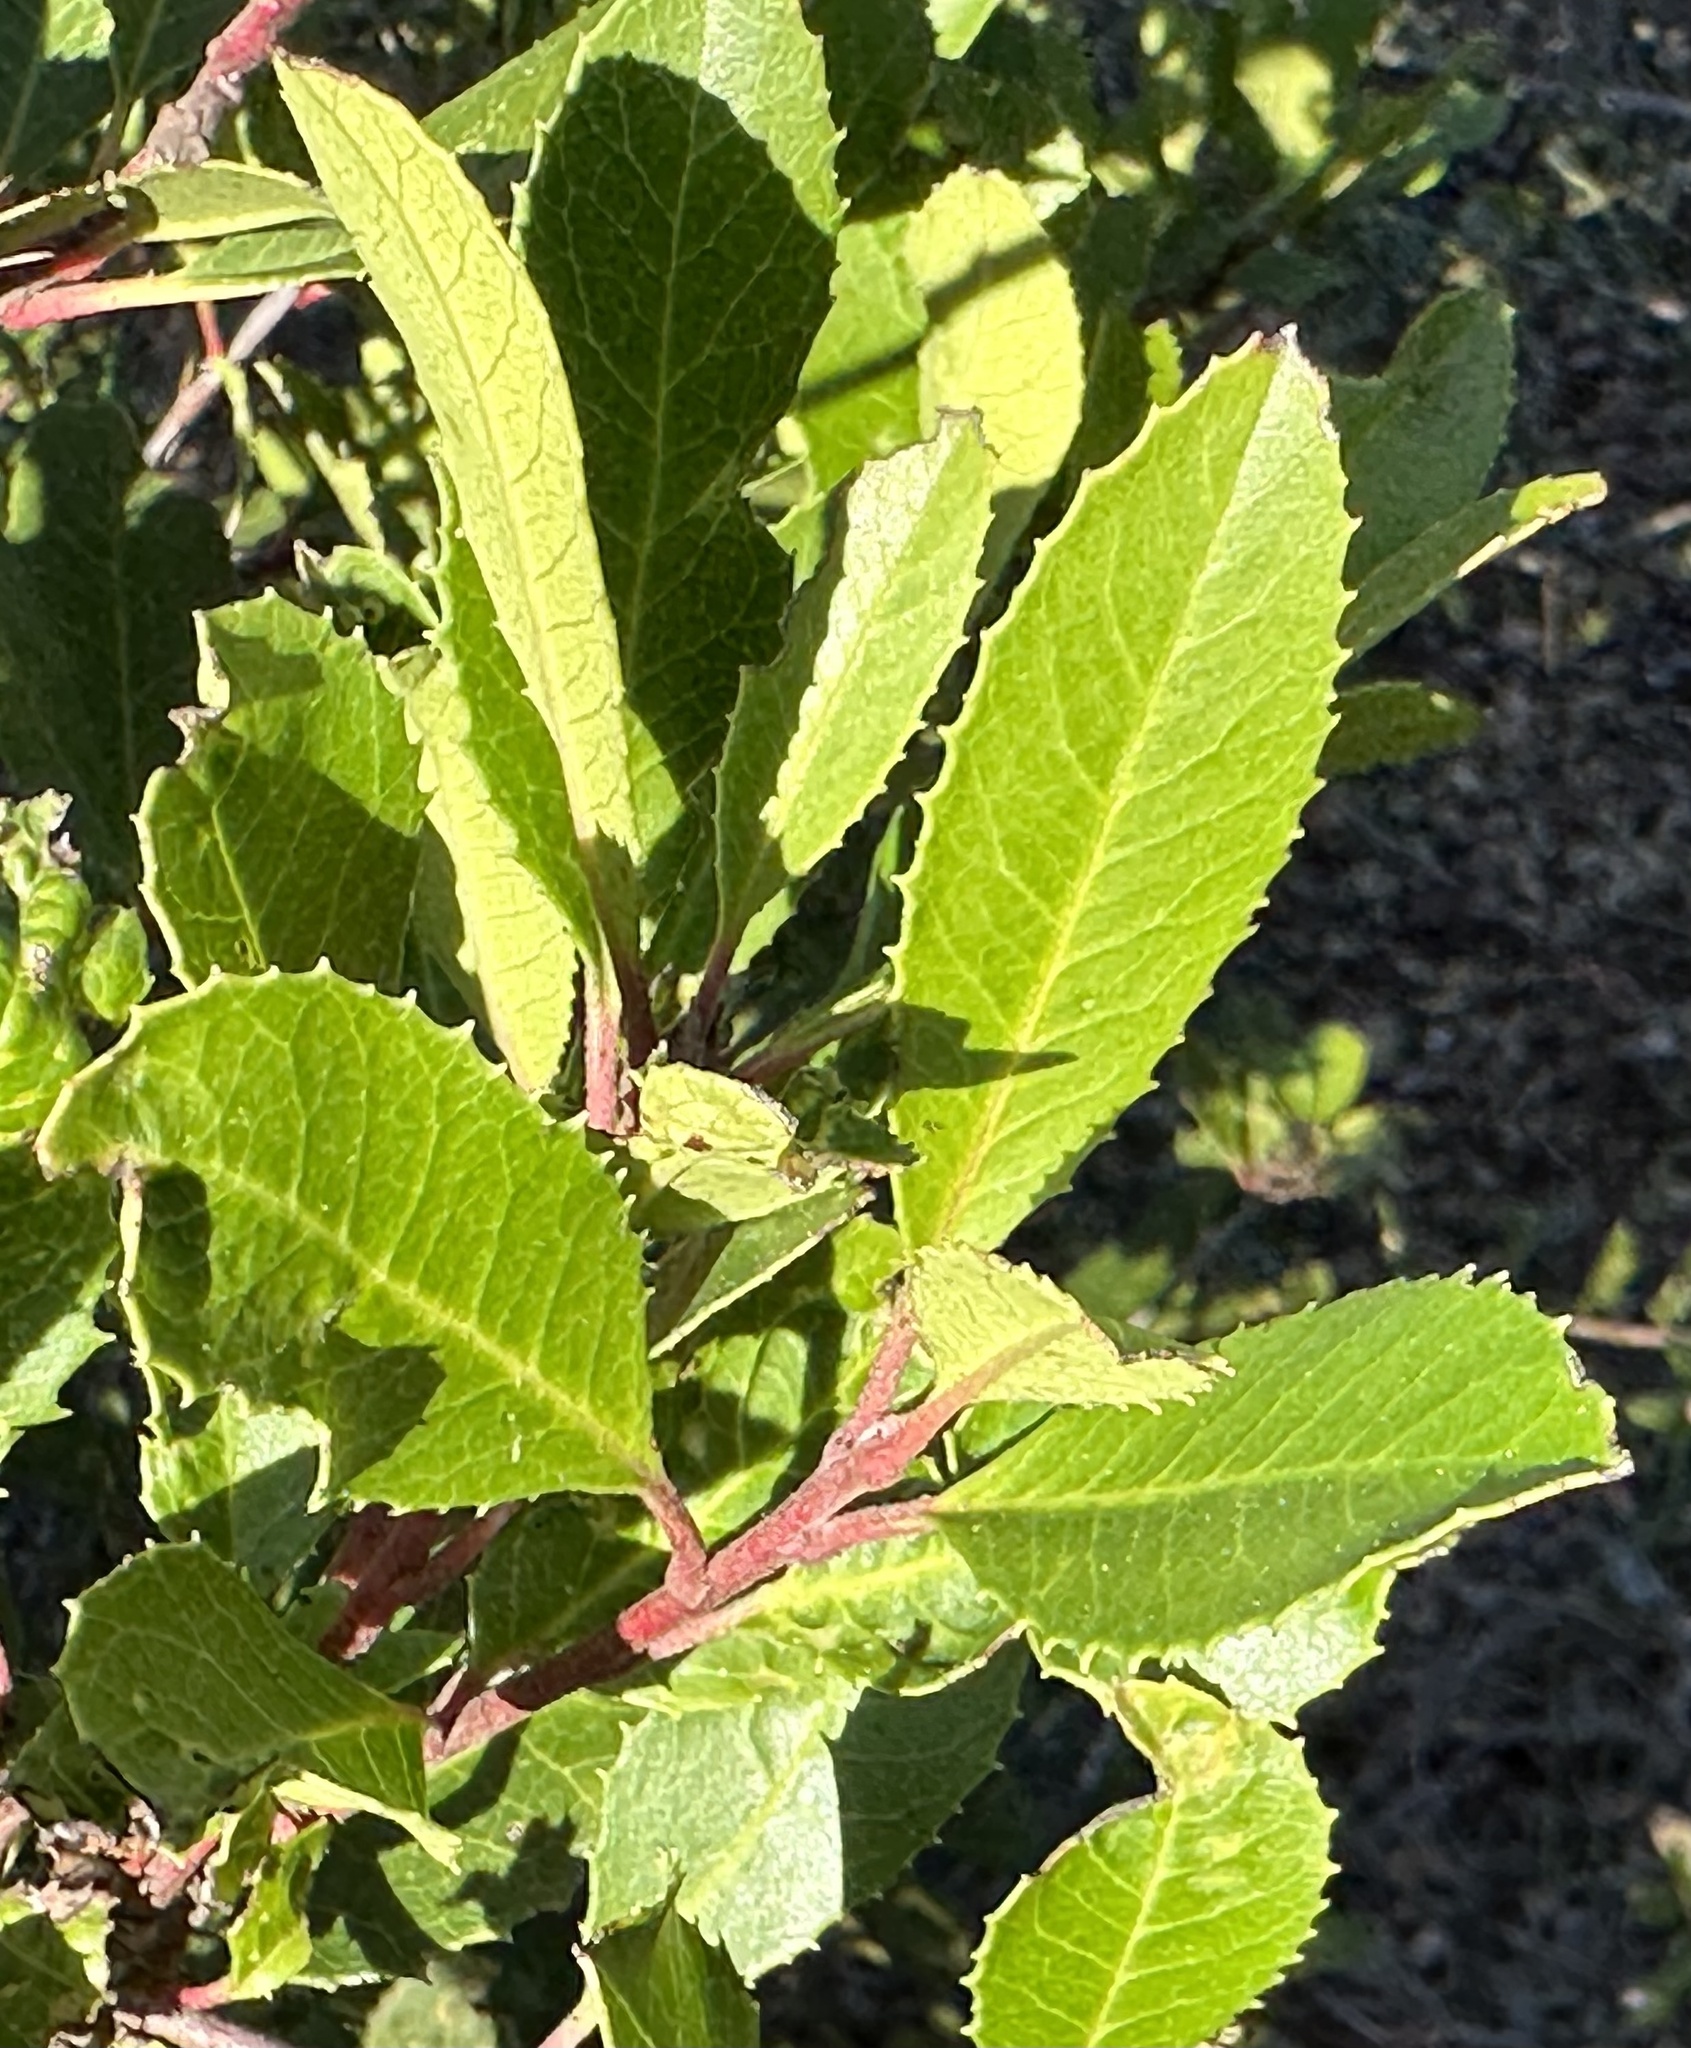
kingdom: Plantae
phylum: Tracheophyta
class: Magnoliopsida
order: Rosales
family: Rosaceae
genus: Heteromeles
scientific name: Heteromeles arbutifolia
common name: California-holly
